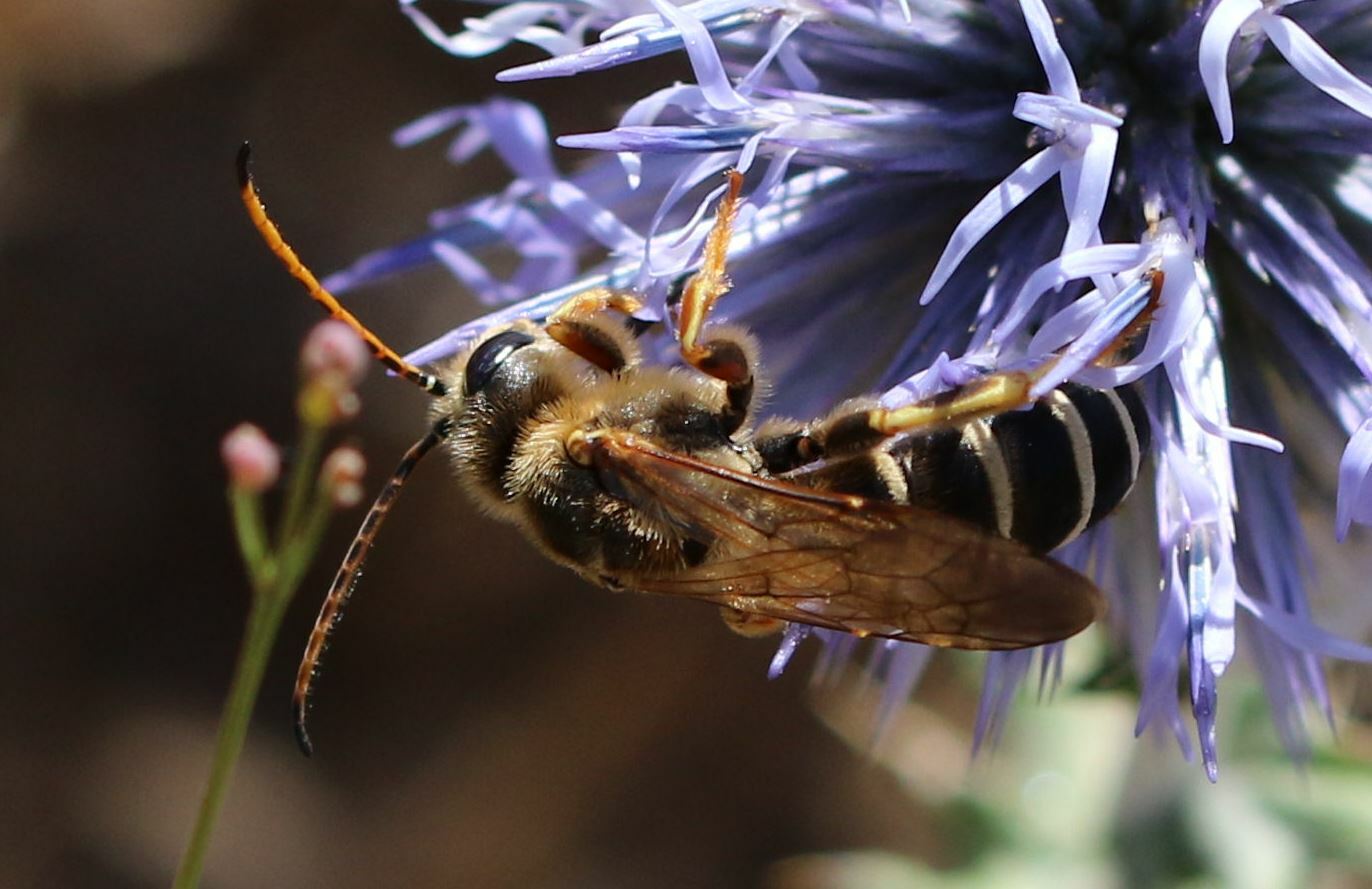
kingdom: Animalia
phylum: Arthropoda
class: Insecta
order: Hymenoptera
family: Halictidae
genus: Halictus
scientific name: Halictus brunnescens
